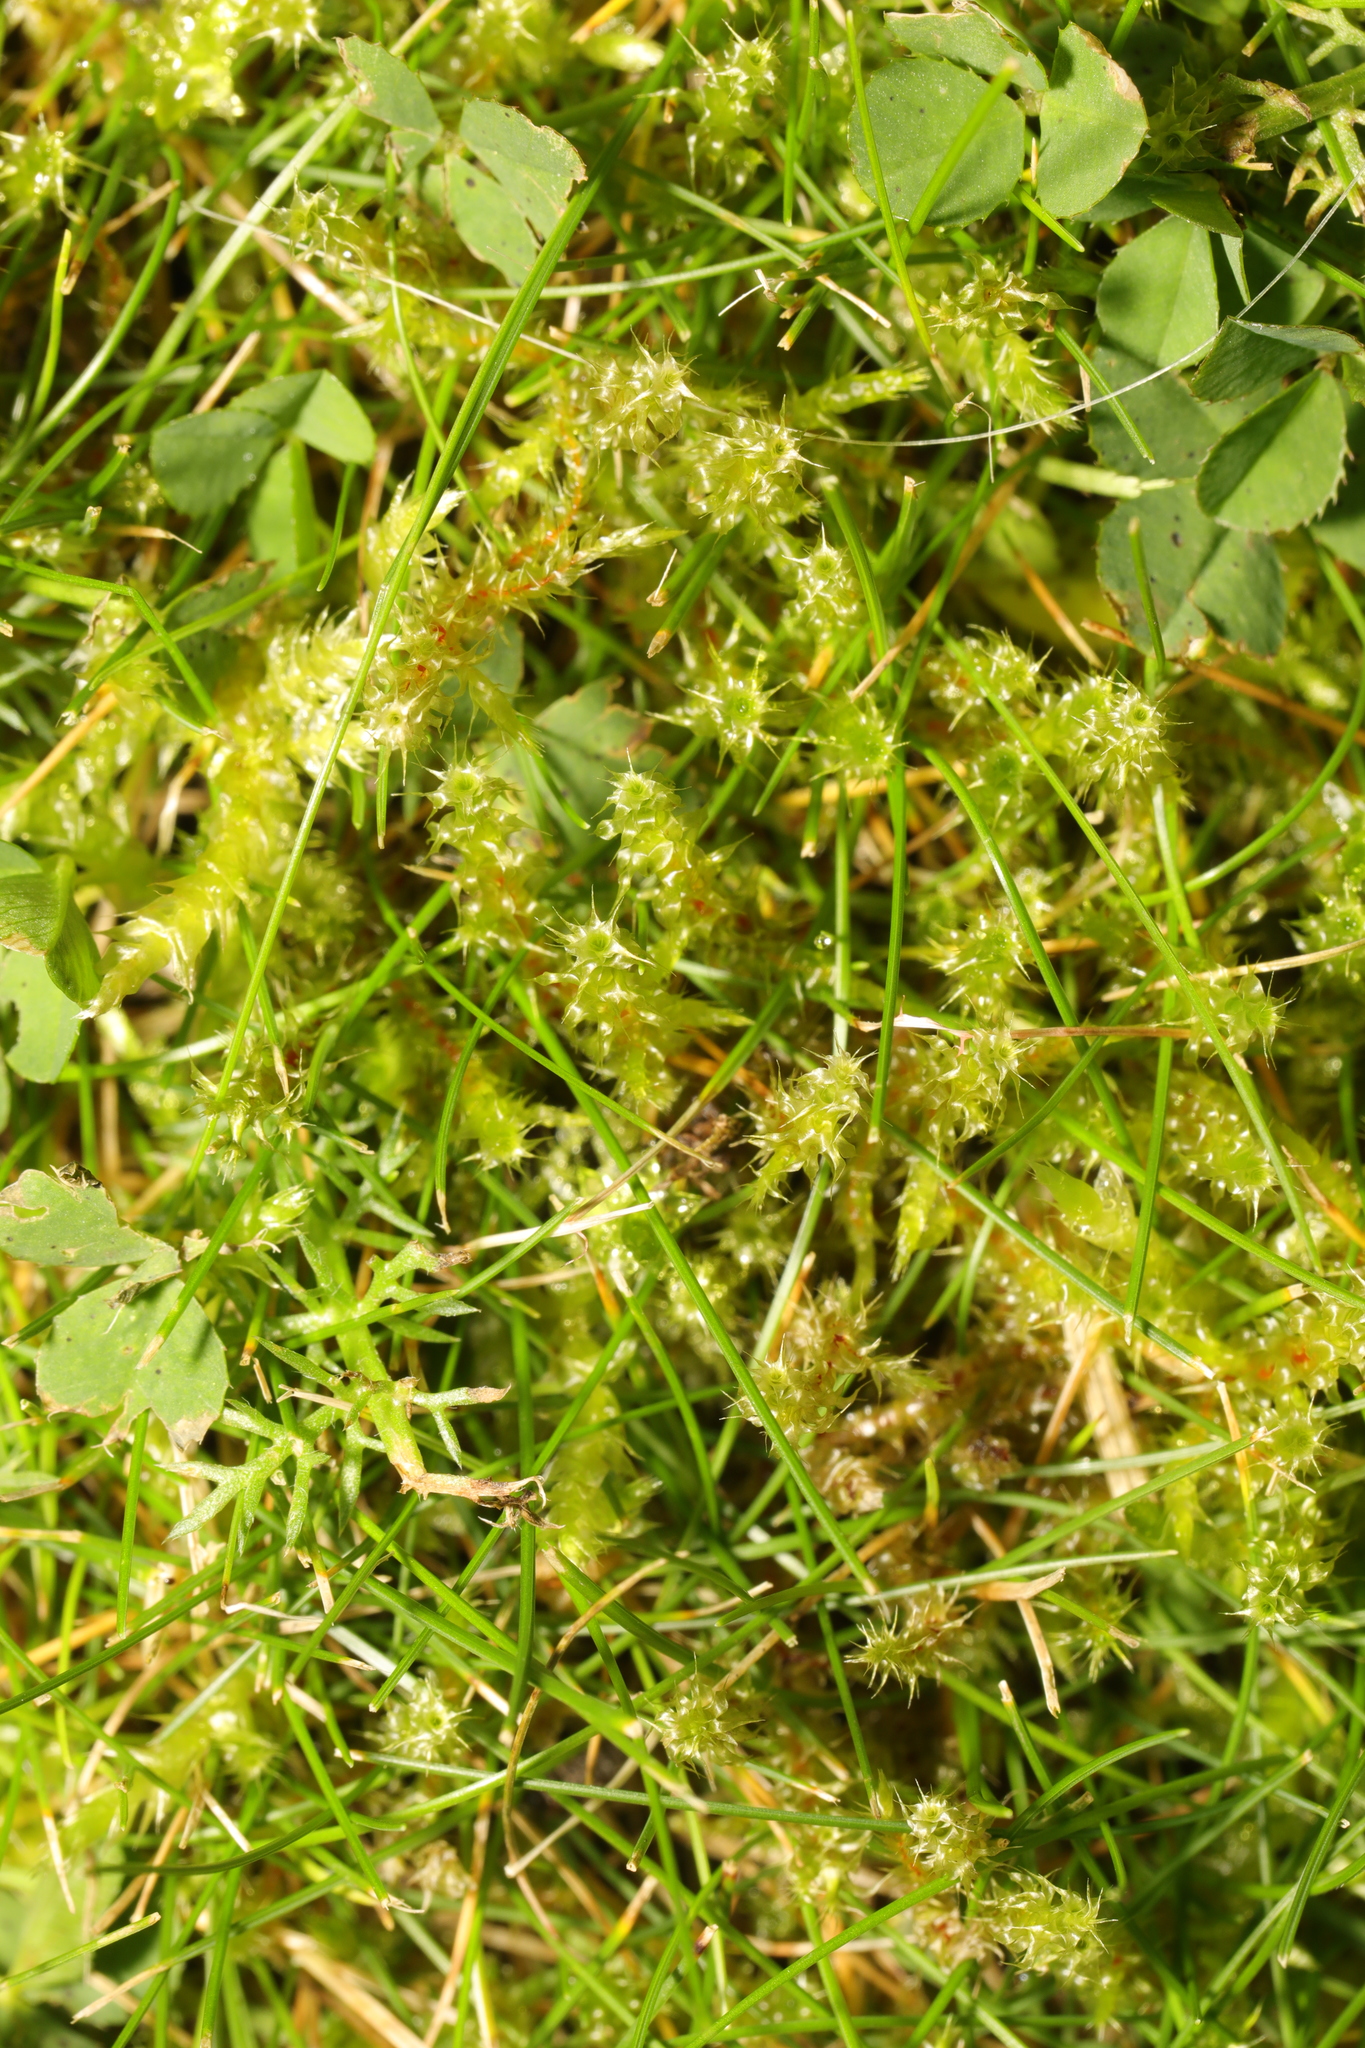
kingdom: Plantae
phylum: Bryophyta
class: Bryopsida
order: Hypnales
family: Hylocomiaceae
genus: Rhytidiadelphus
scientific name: Rhytidiadelphus squarrosus
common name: Springy turf-moss
